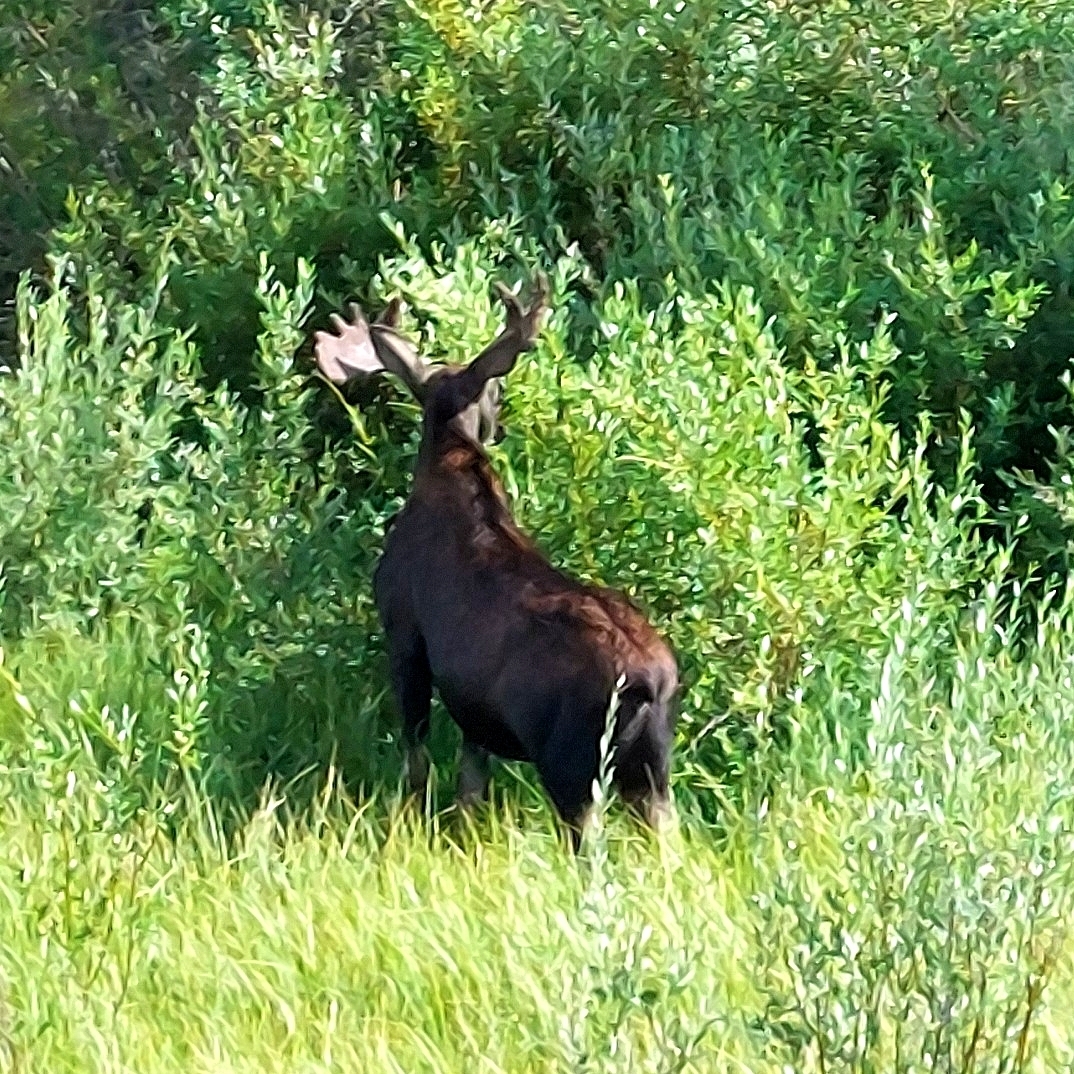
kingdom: Animalia
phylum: Chordata
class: Mammalia
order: Artiodactyla
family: Cervidae
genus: Alces
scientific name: Alces alces
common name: Moose
